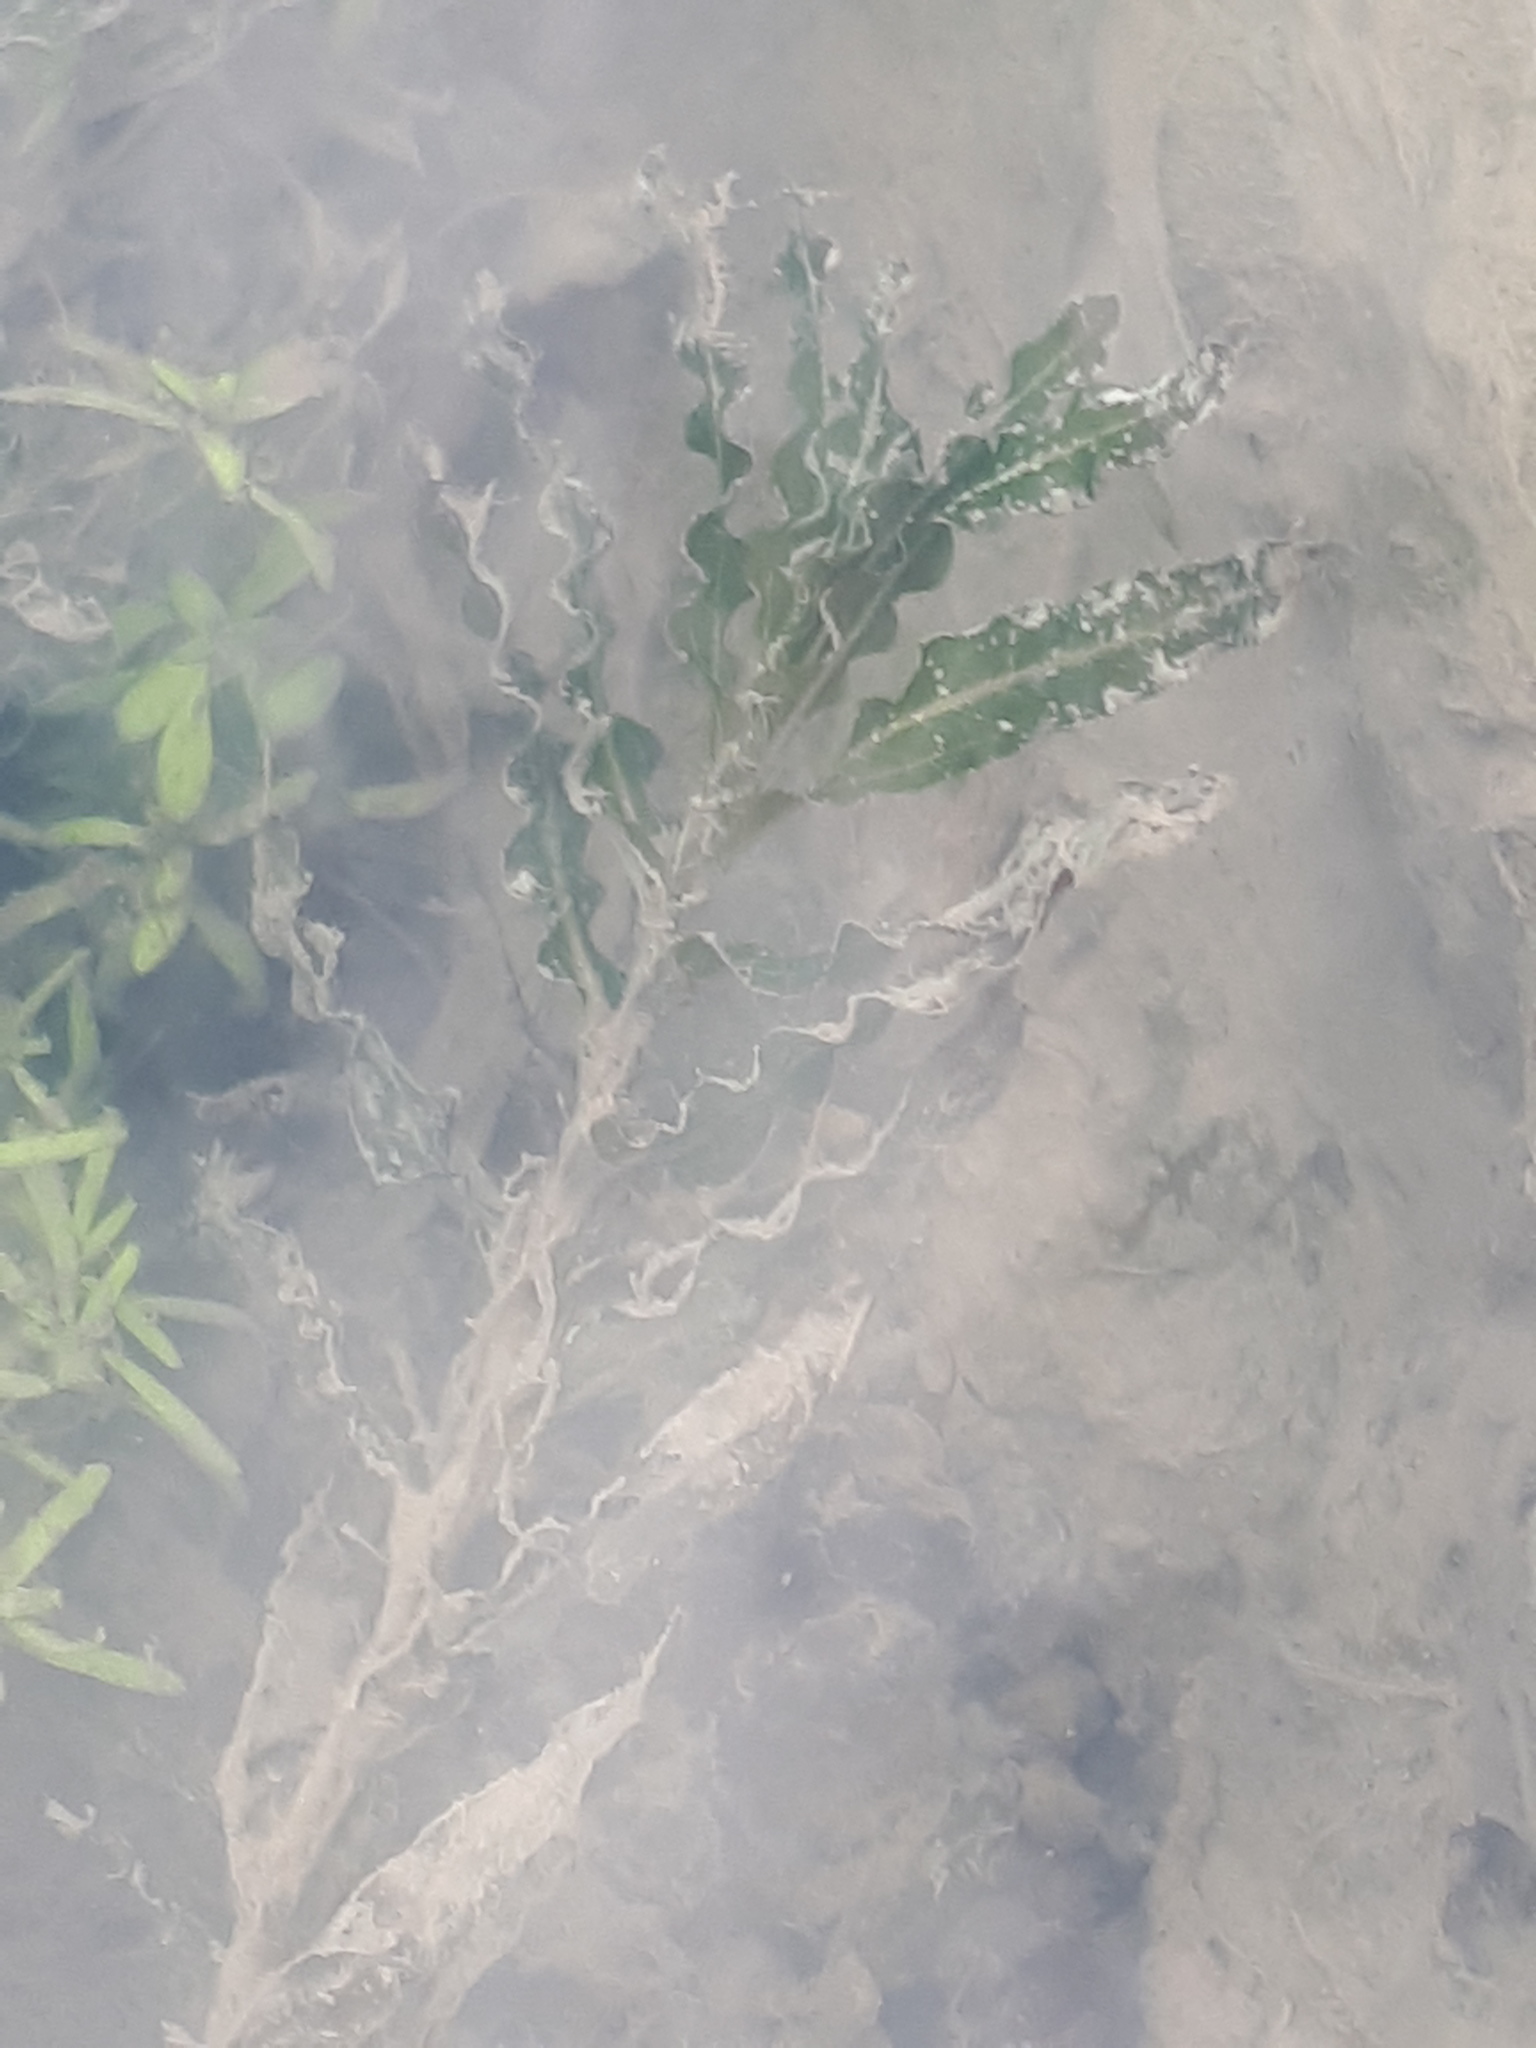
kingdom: Plantae
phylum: Tracheophyta
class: Liliopsida
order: Alismatales
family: Potamogetonaceae
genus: Potamogeton
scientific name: Potamogeton crispus
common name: Curled pondweed
